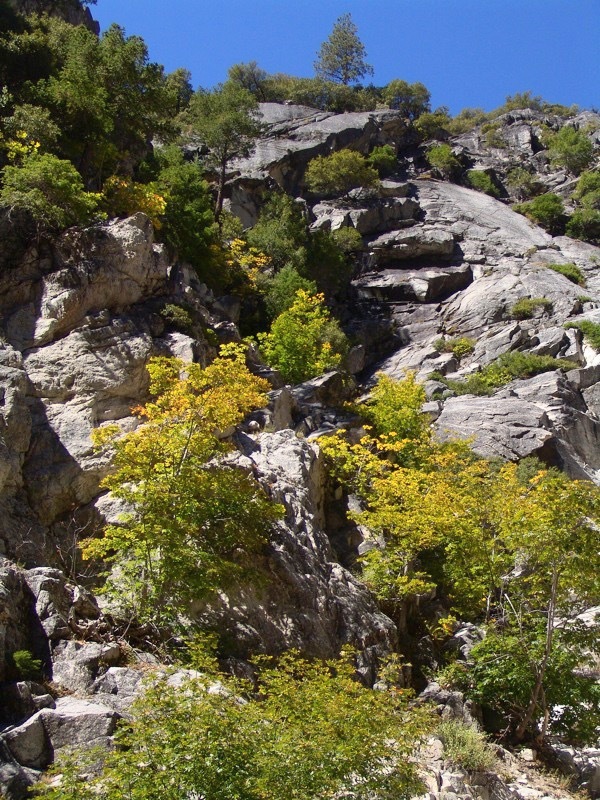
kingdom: Plantae
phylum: Tracheophyta
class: Magnoliopsida
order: Sapindales
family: Sapindaceae
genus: Acer
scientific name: Acer macrophyllum
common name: Oregon maple
